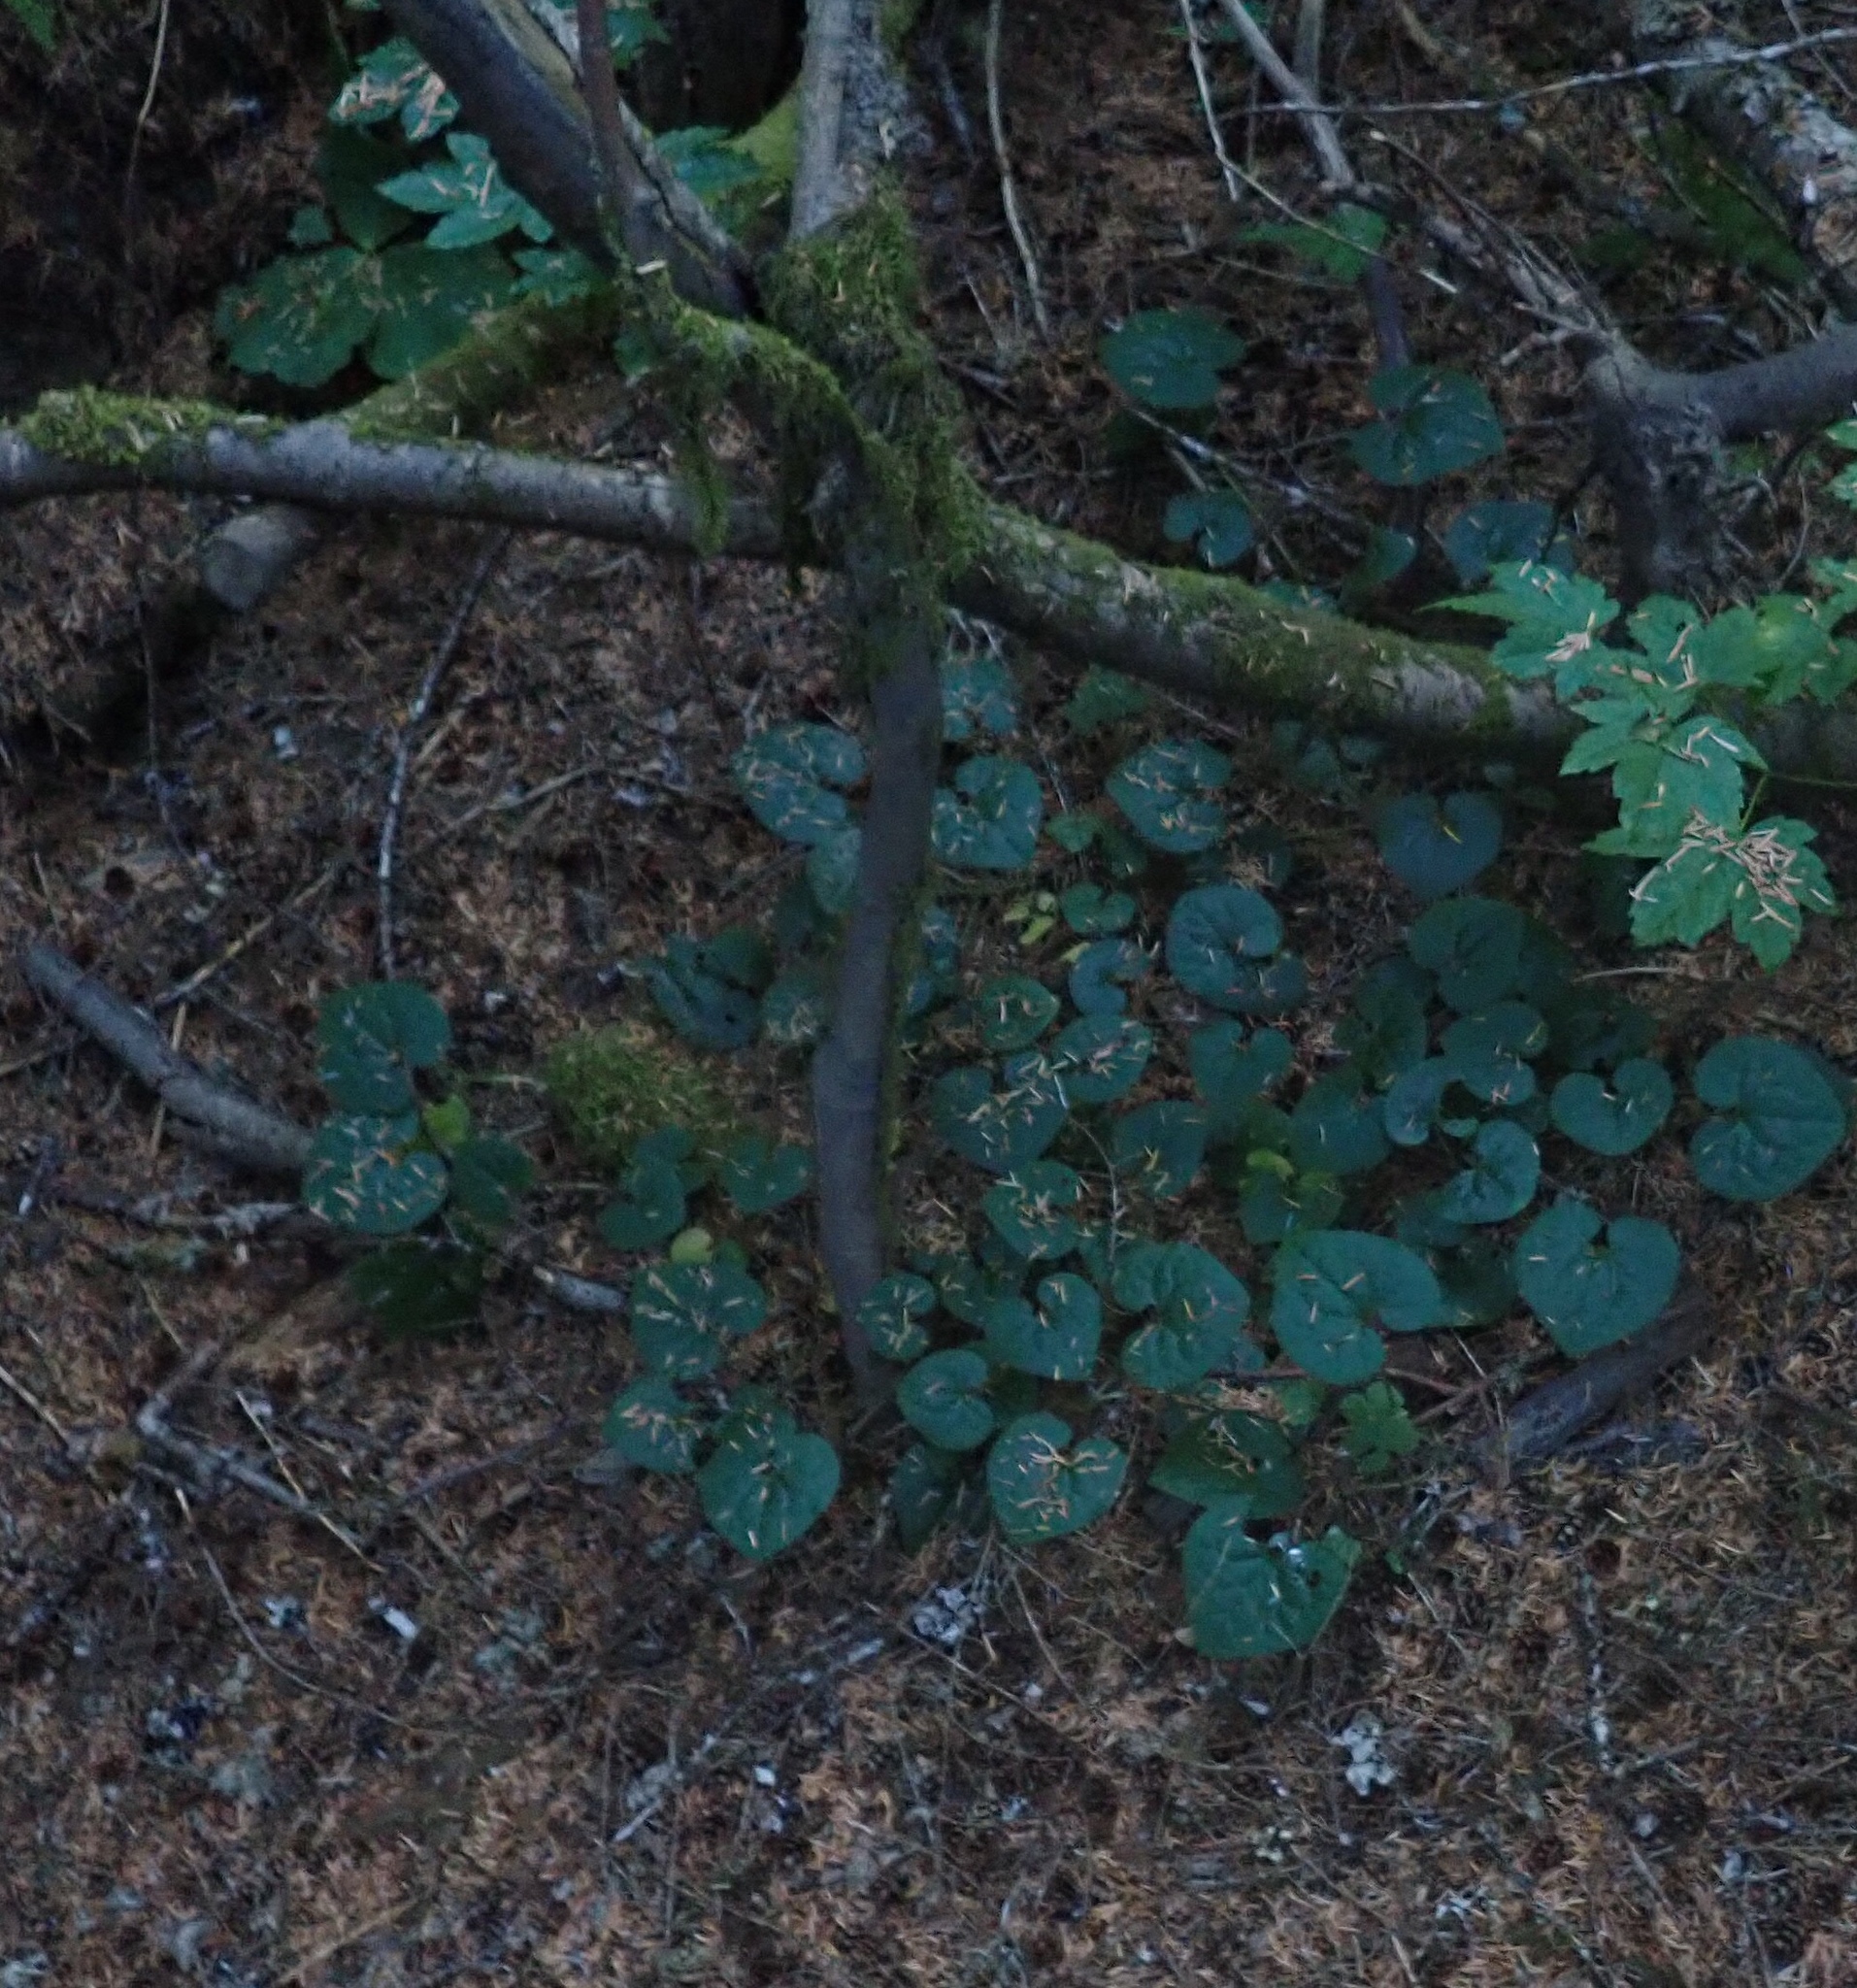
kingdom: Plantae
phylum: Tracheophyta
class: Magnoliopsida
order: Piperales
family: Aristolochiaceae
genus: Asarum
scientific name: Asarum caudatum
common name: Wild ginger
